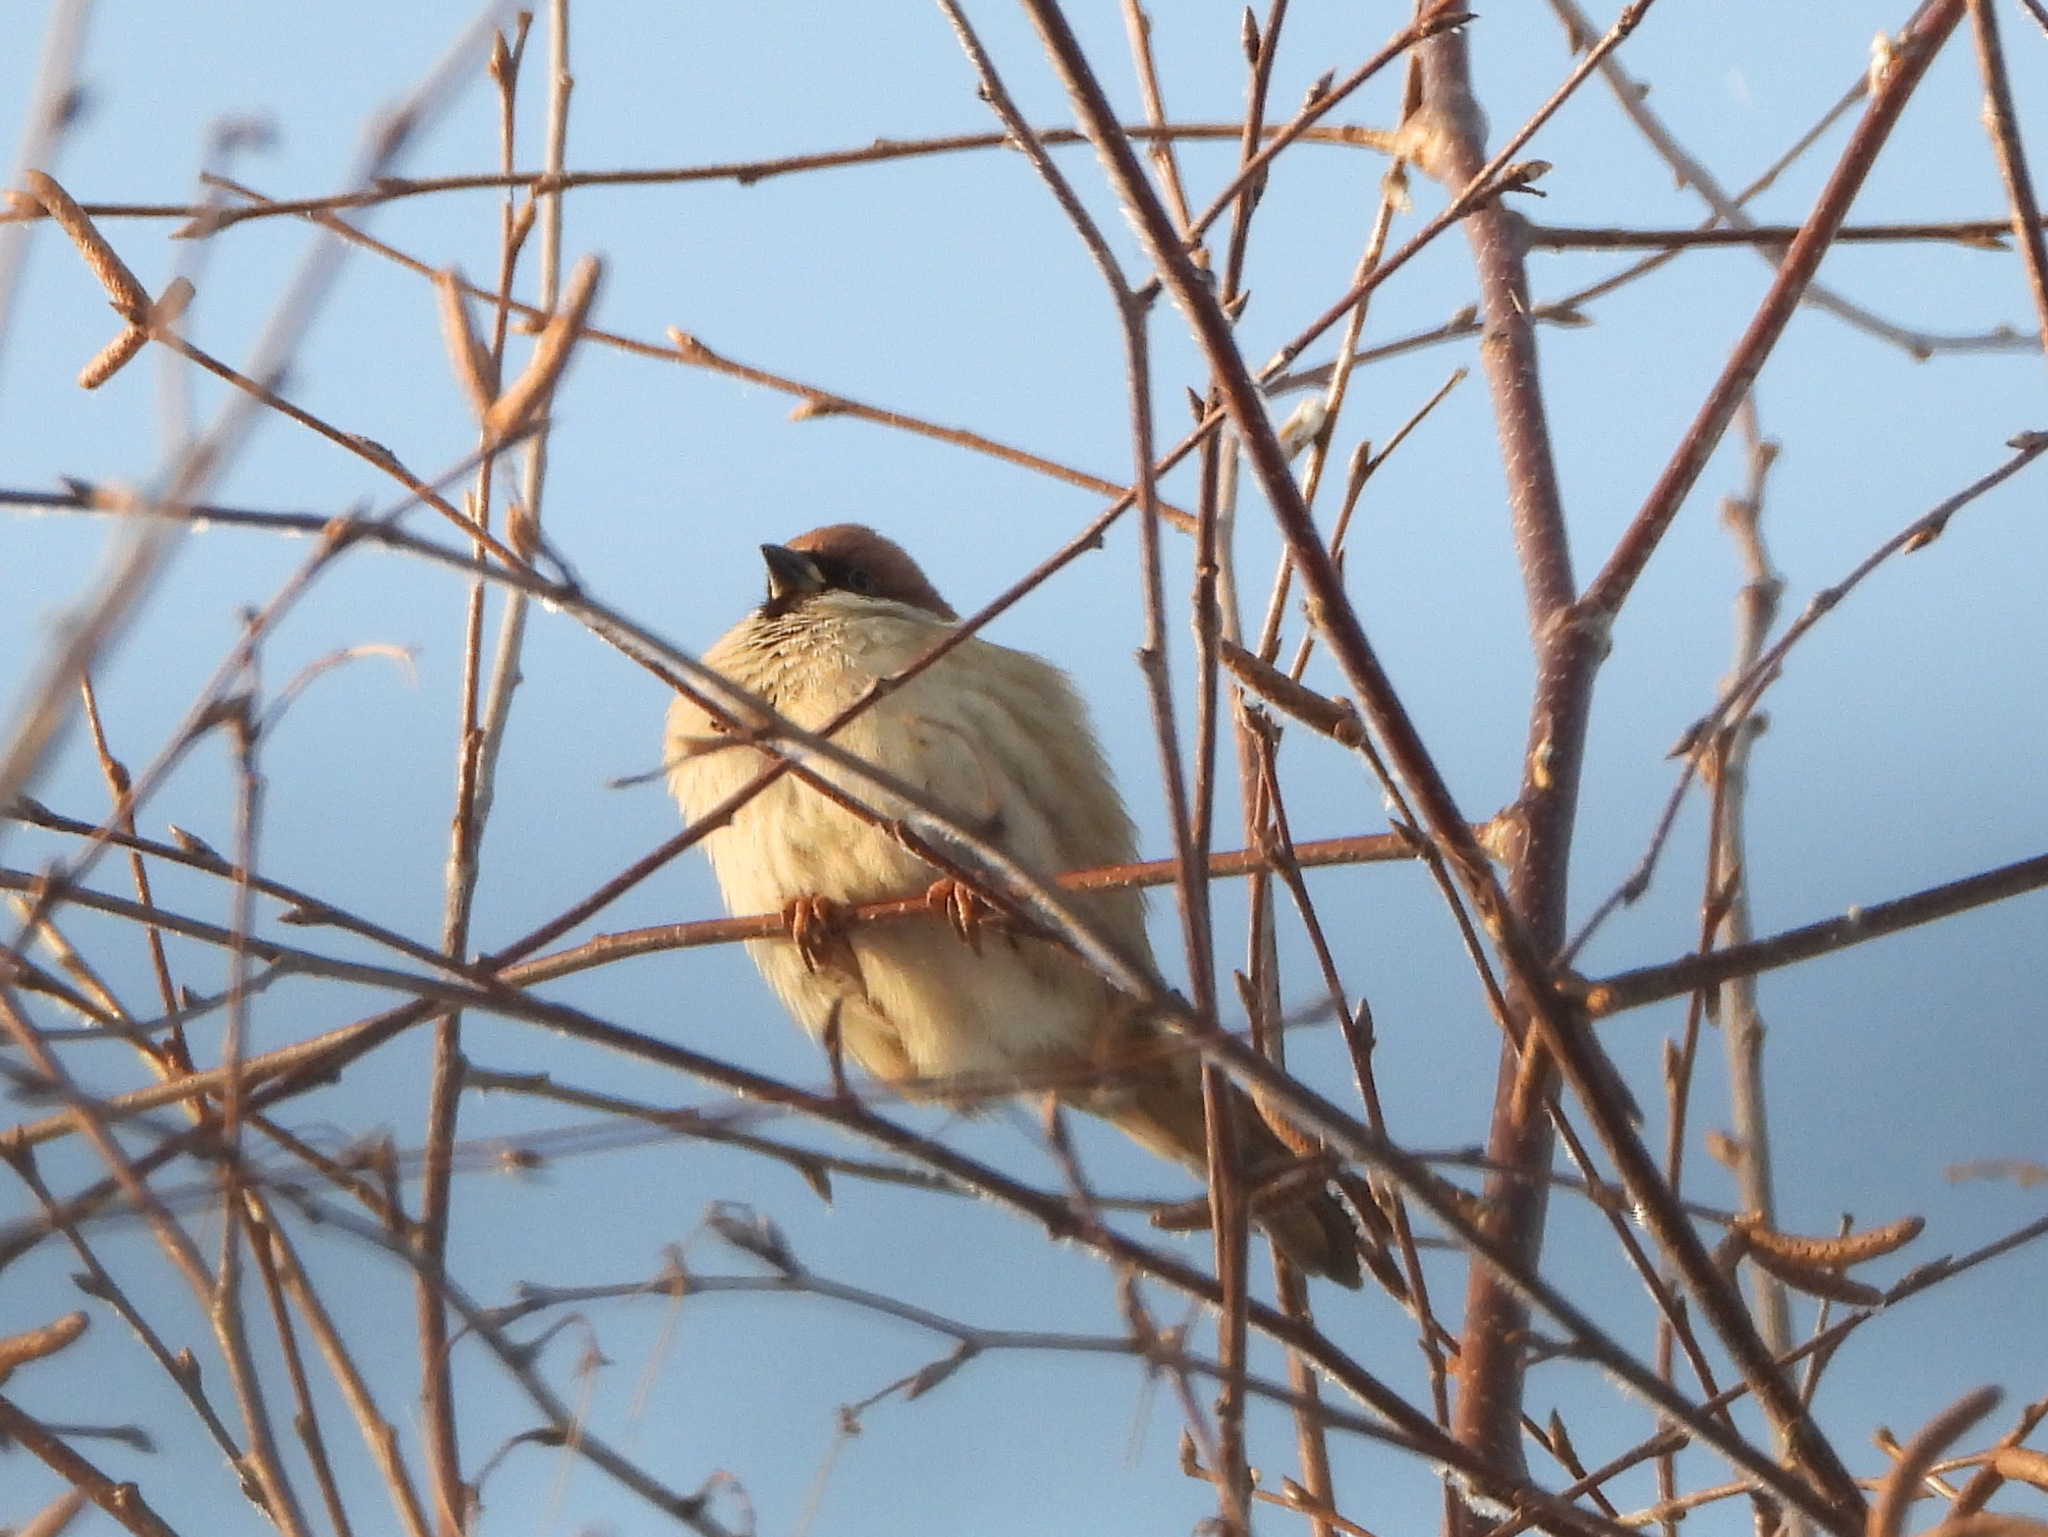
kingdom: Animalia
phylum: Chordata
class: Aves
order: Passeriformes
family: Passeridae
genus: Passer
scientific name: Passer montanus
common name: Eurasian tree sparrow
